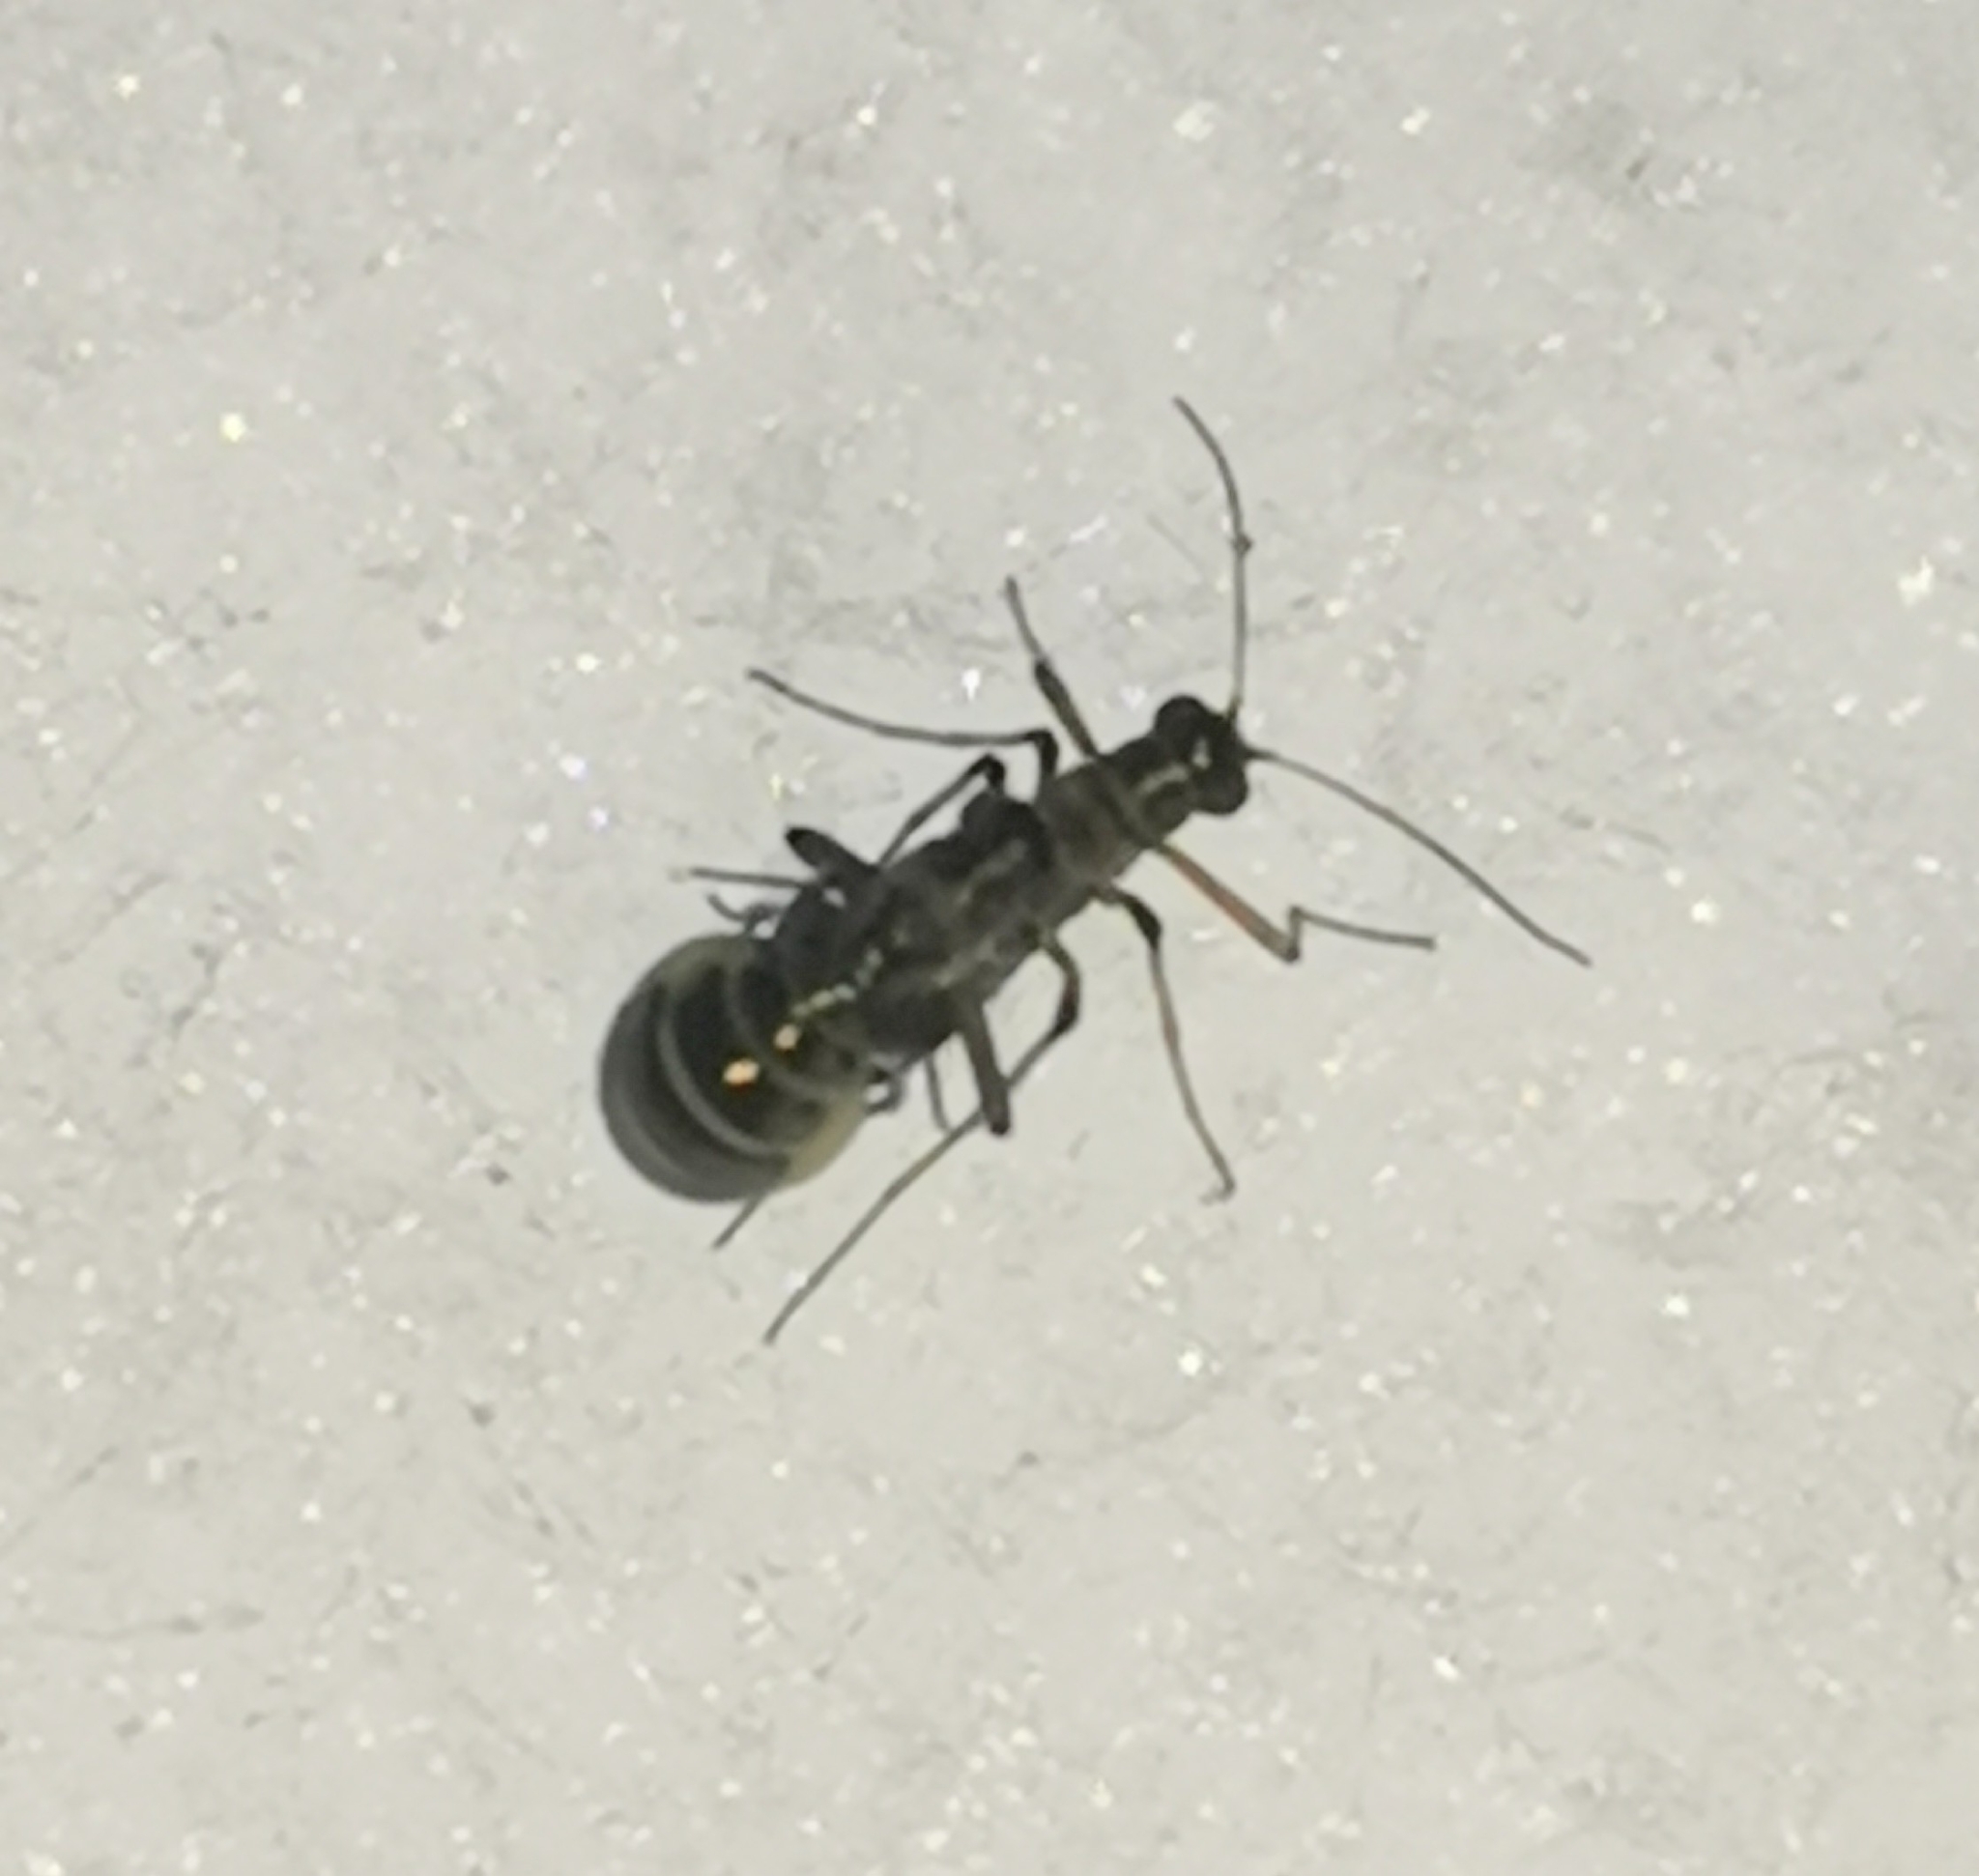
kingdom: Animalia
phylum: Arthropoda
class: Insecta
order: Mecoptera
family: Boreidae
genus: Boreus
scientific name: Boreus westwoodi
